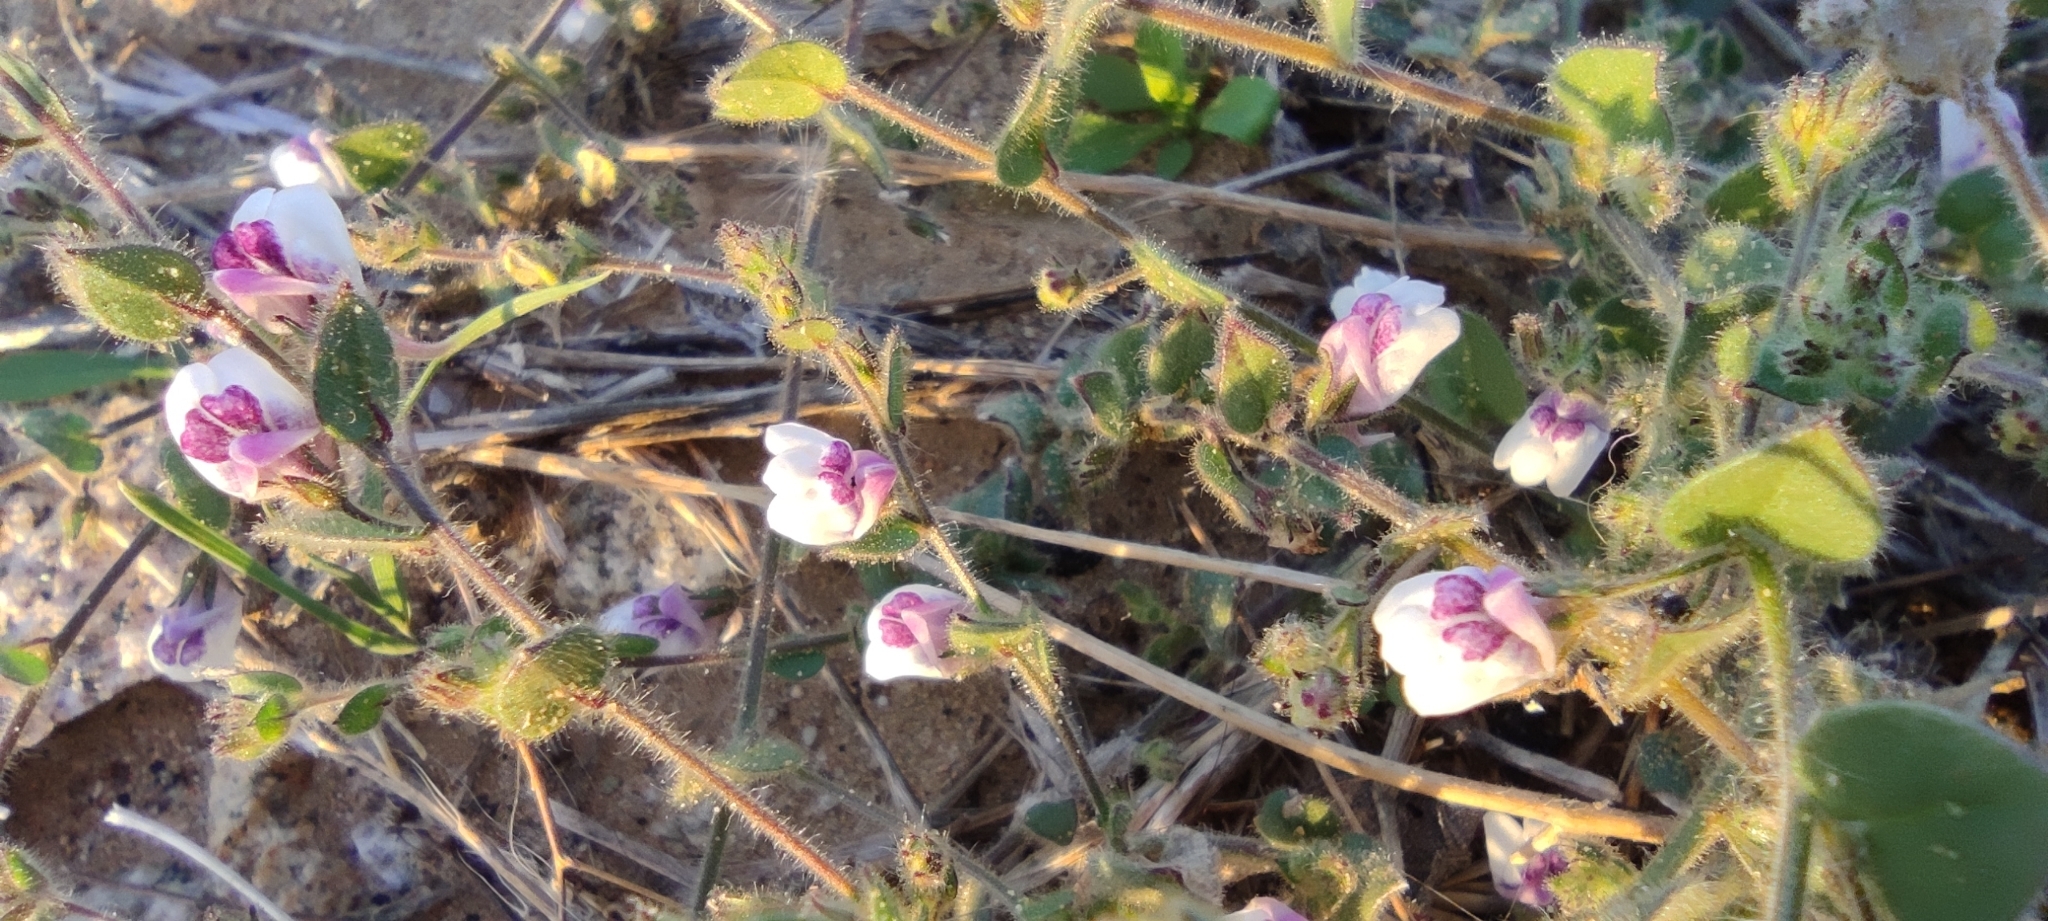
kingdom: Plantae
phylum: Tracheophyta
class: Magnoliopsida
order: Lamiales
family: Plantaginaceae
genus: Kickxia
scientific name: Kickxia lanigera
